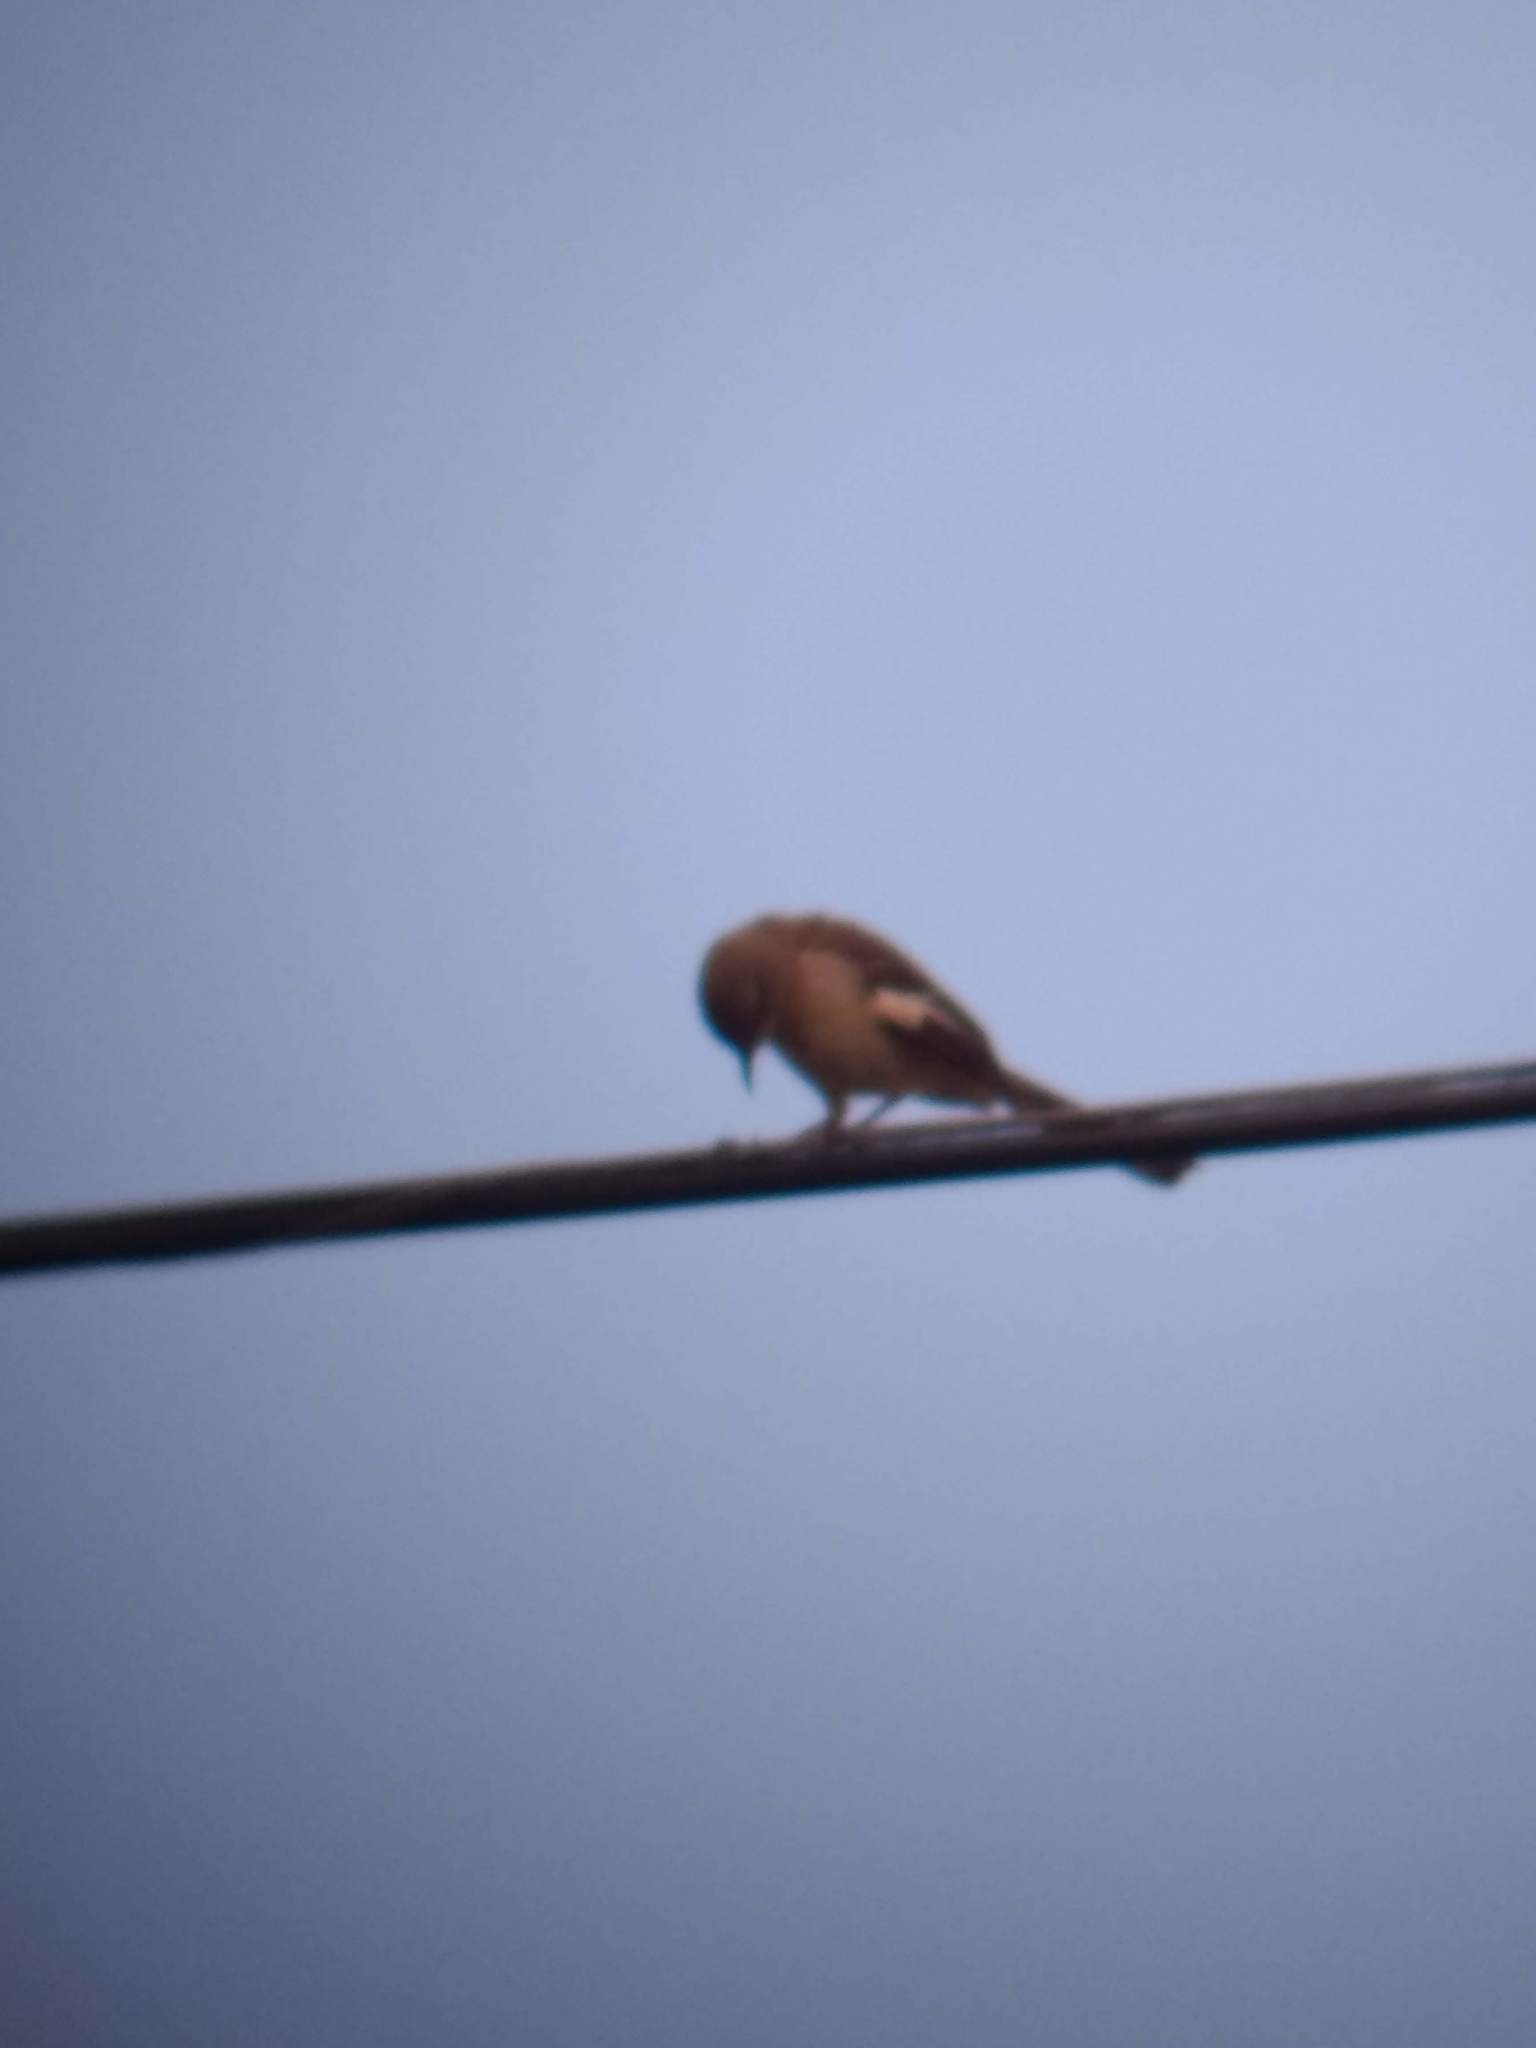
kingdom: Animalia
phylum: Chordata
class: Aves
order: Passeriformes
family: Mimidae
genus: Mimus
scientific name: Mimus polyglottos
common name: Northern mockingbird
